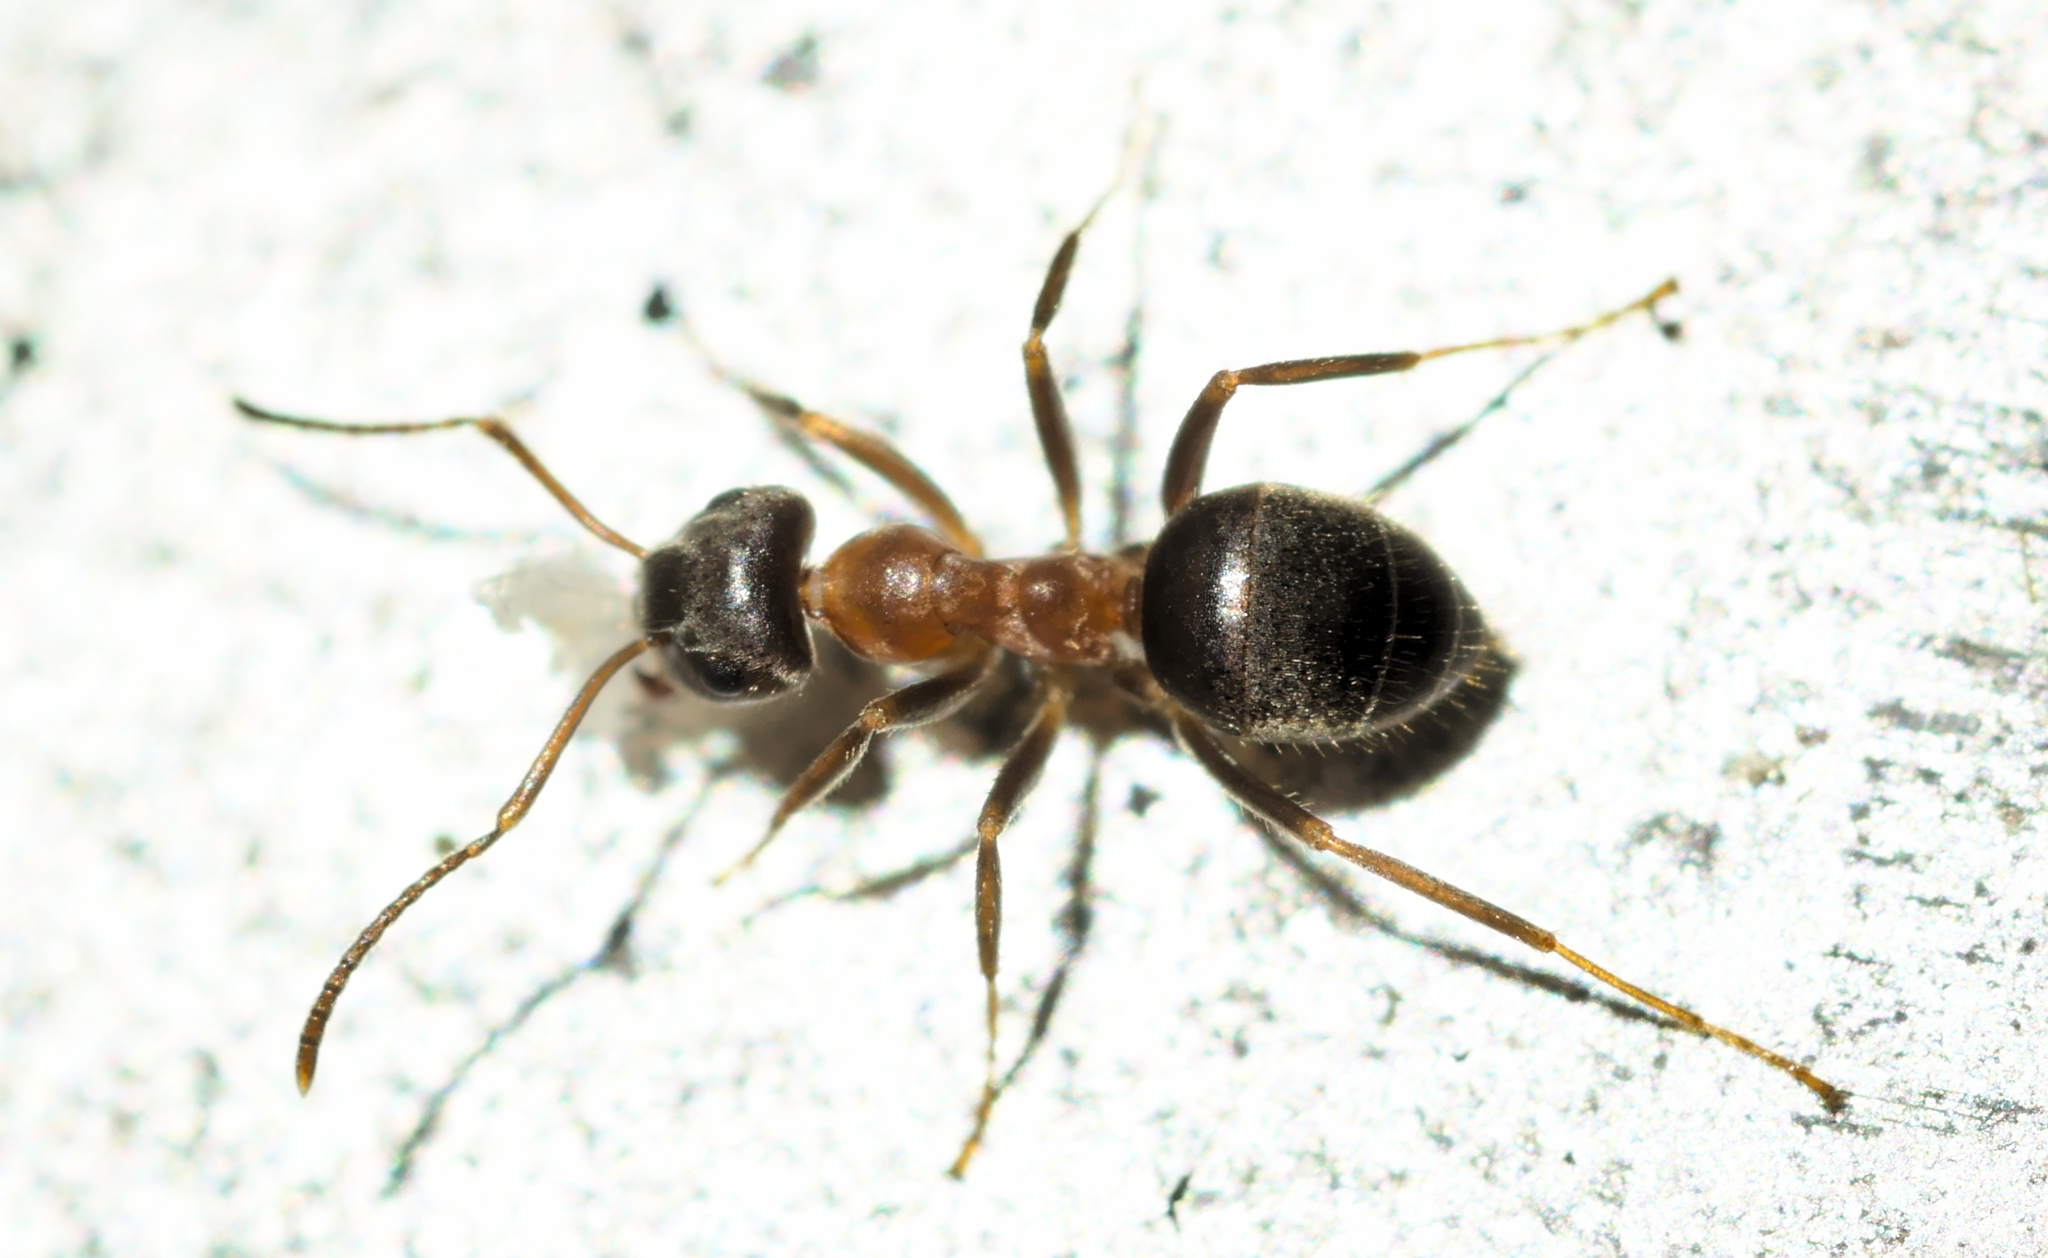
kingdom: Animalia
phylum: Arthropoda
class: Insecta
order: Hymenoptera
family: Formicidae
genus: Lasius
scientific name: Lasius emarginatus
